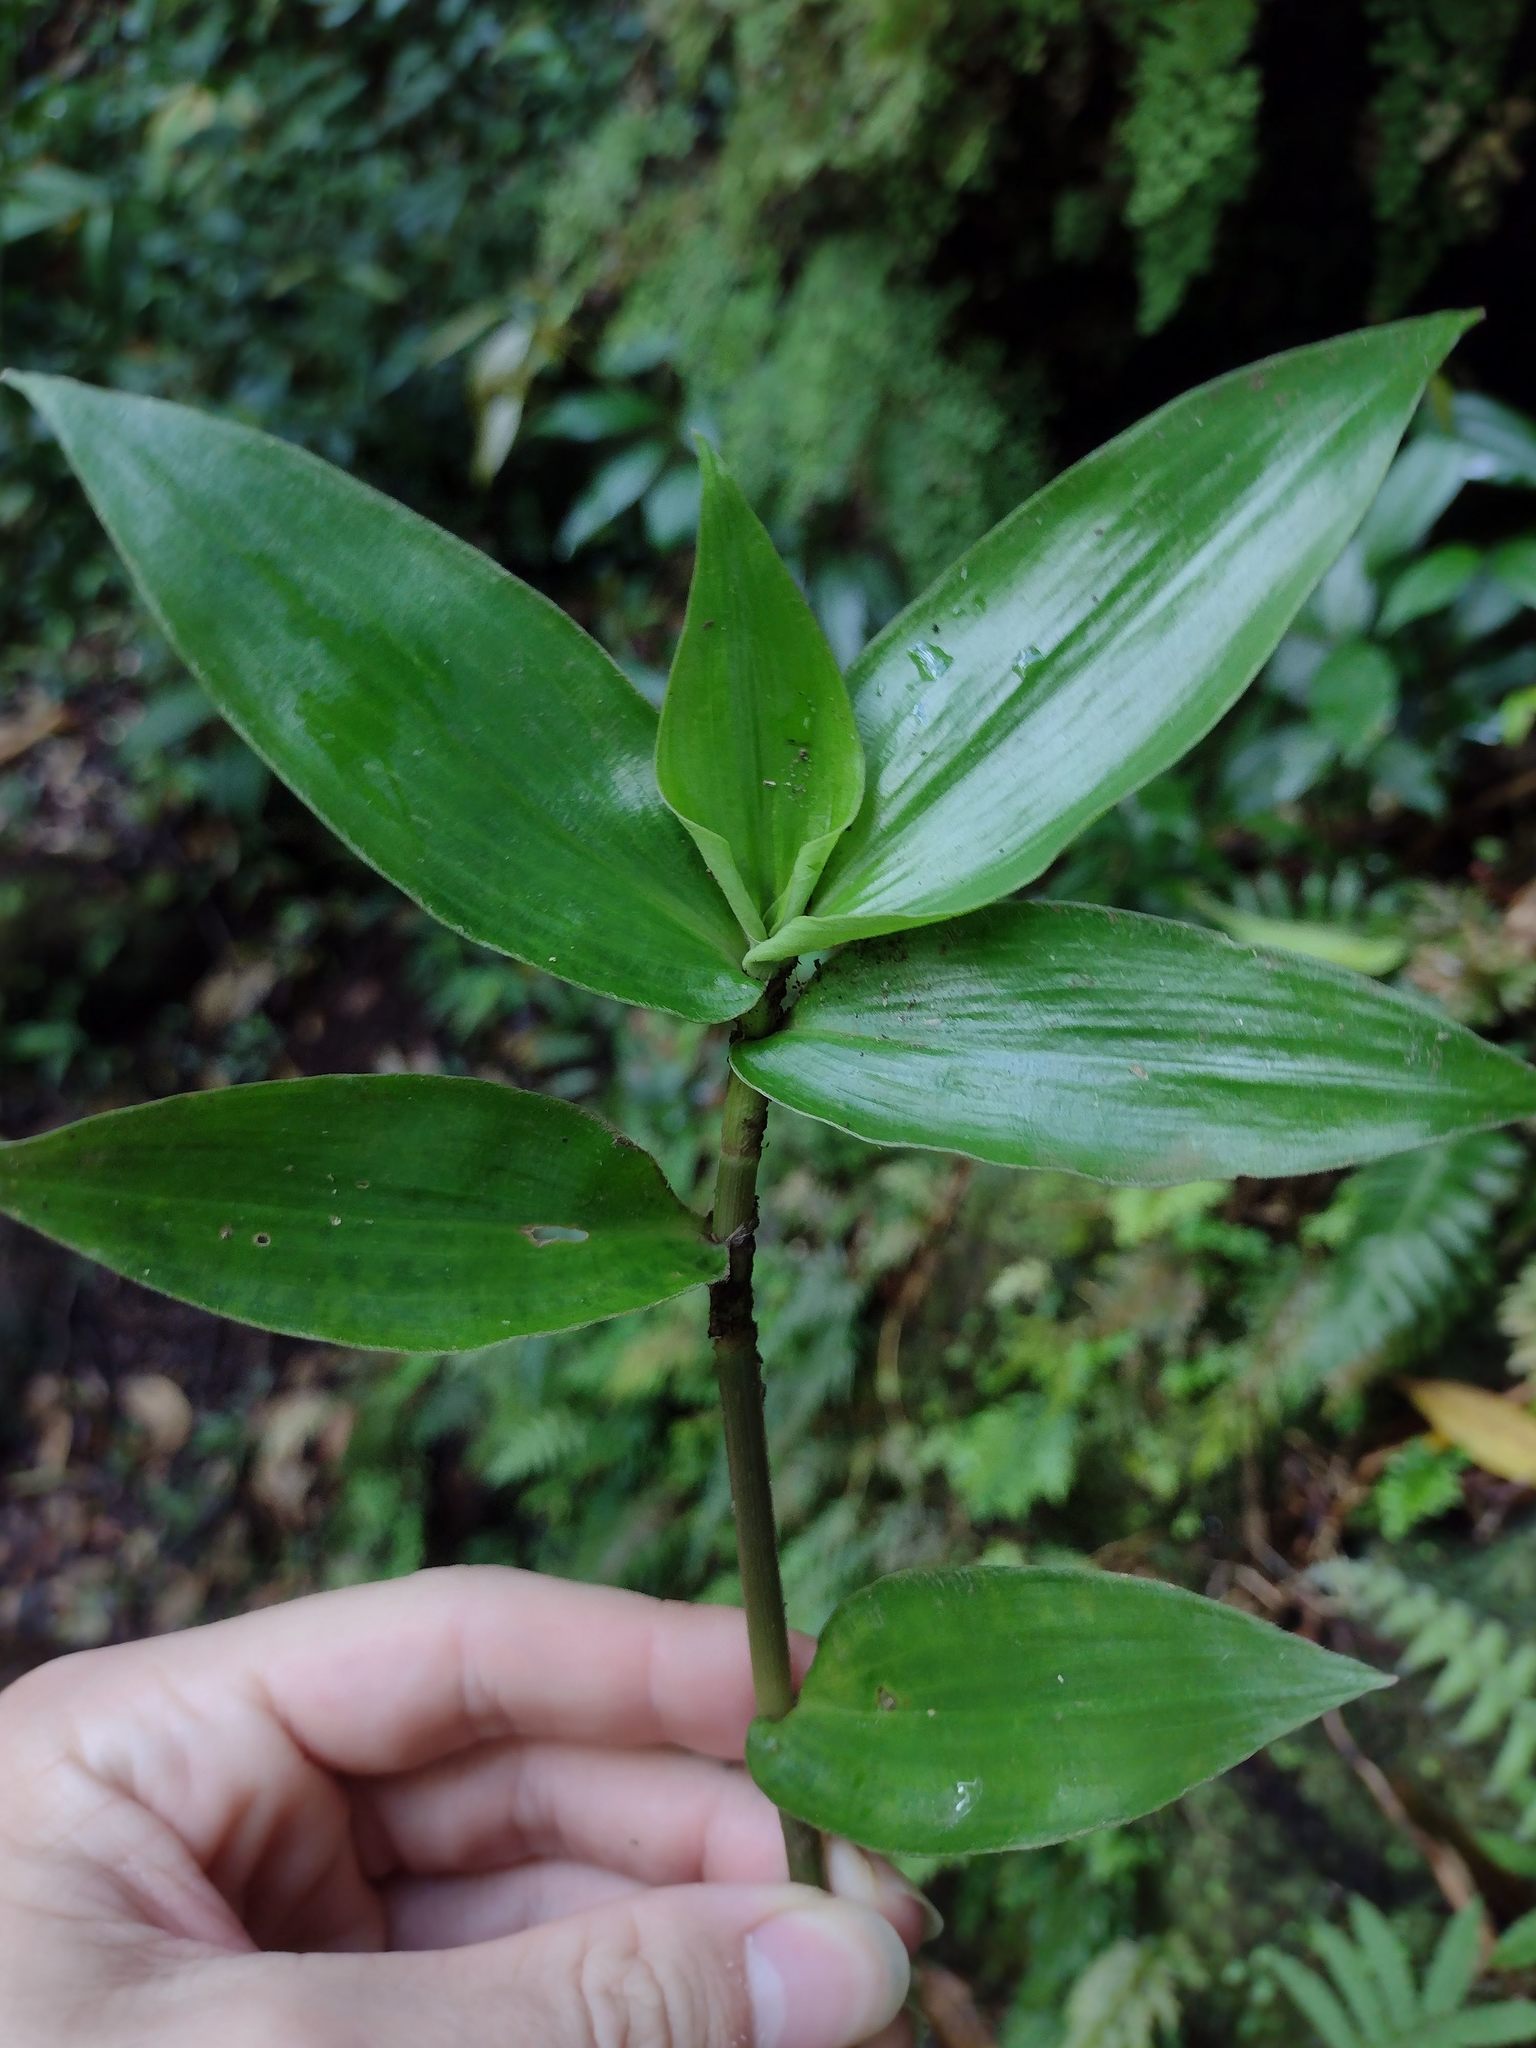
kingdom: Plantae
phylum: Tracheophyta
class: Liliopsida
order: Commelinales
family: Commelinaceae
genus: Commelina
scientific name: Commelina diffusa
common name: Climbing dayflower
